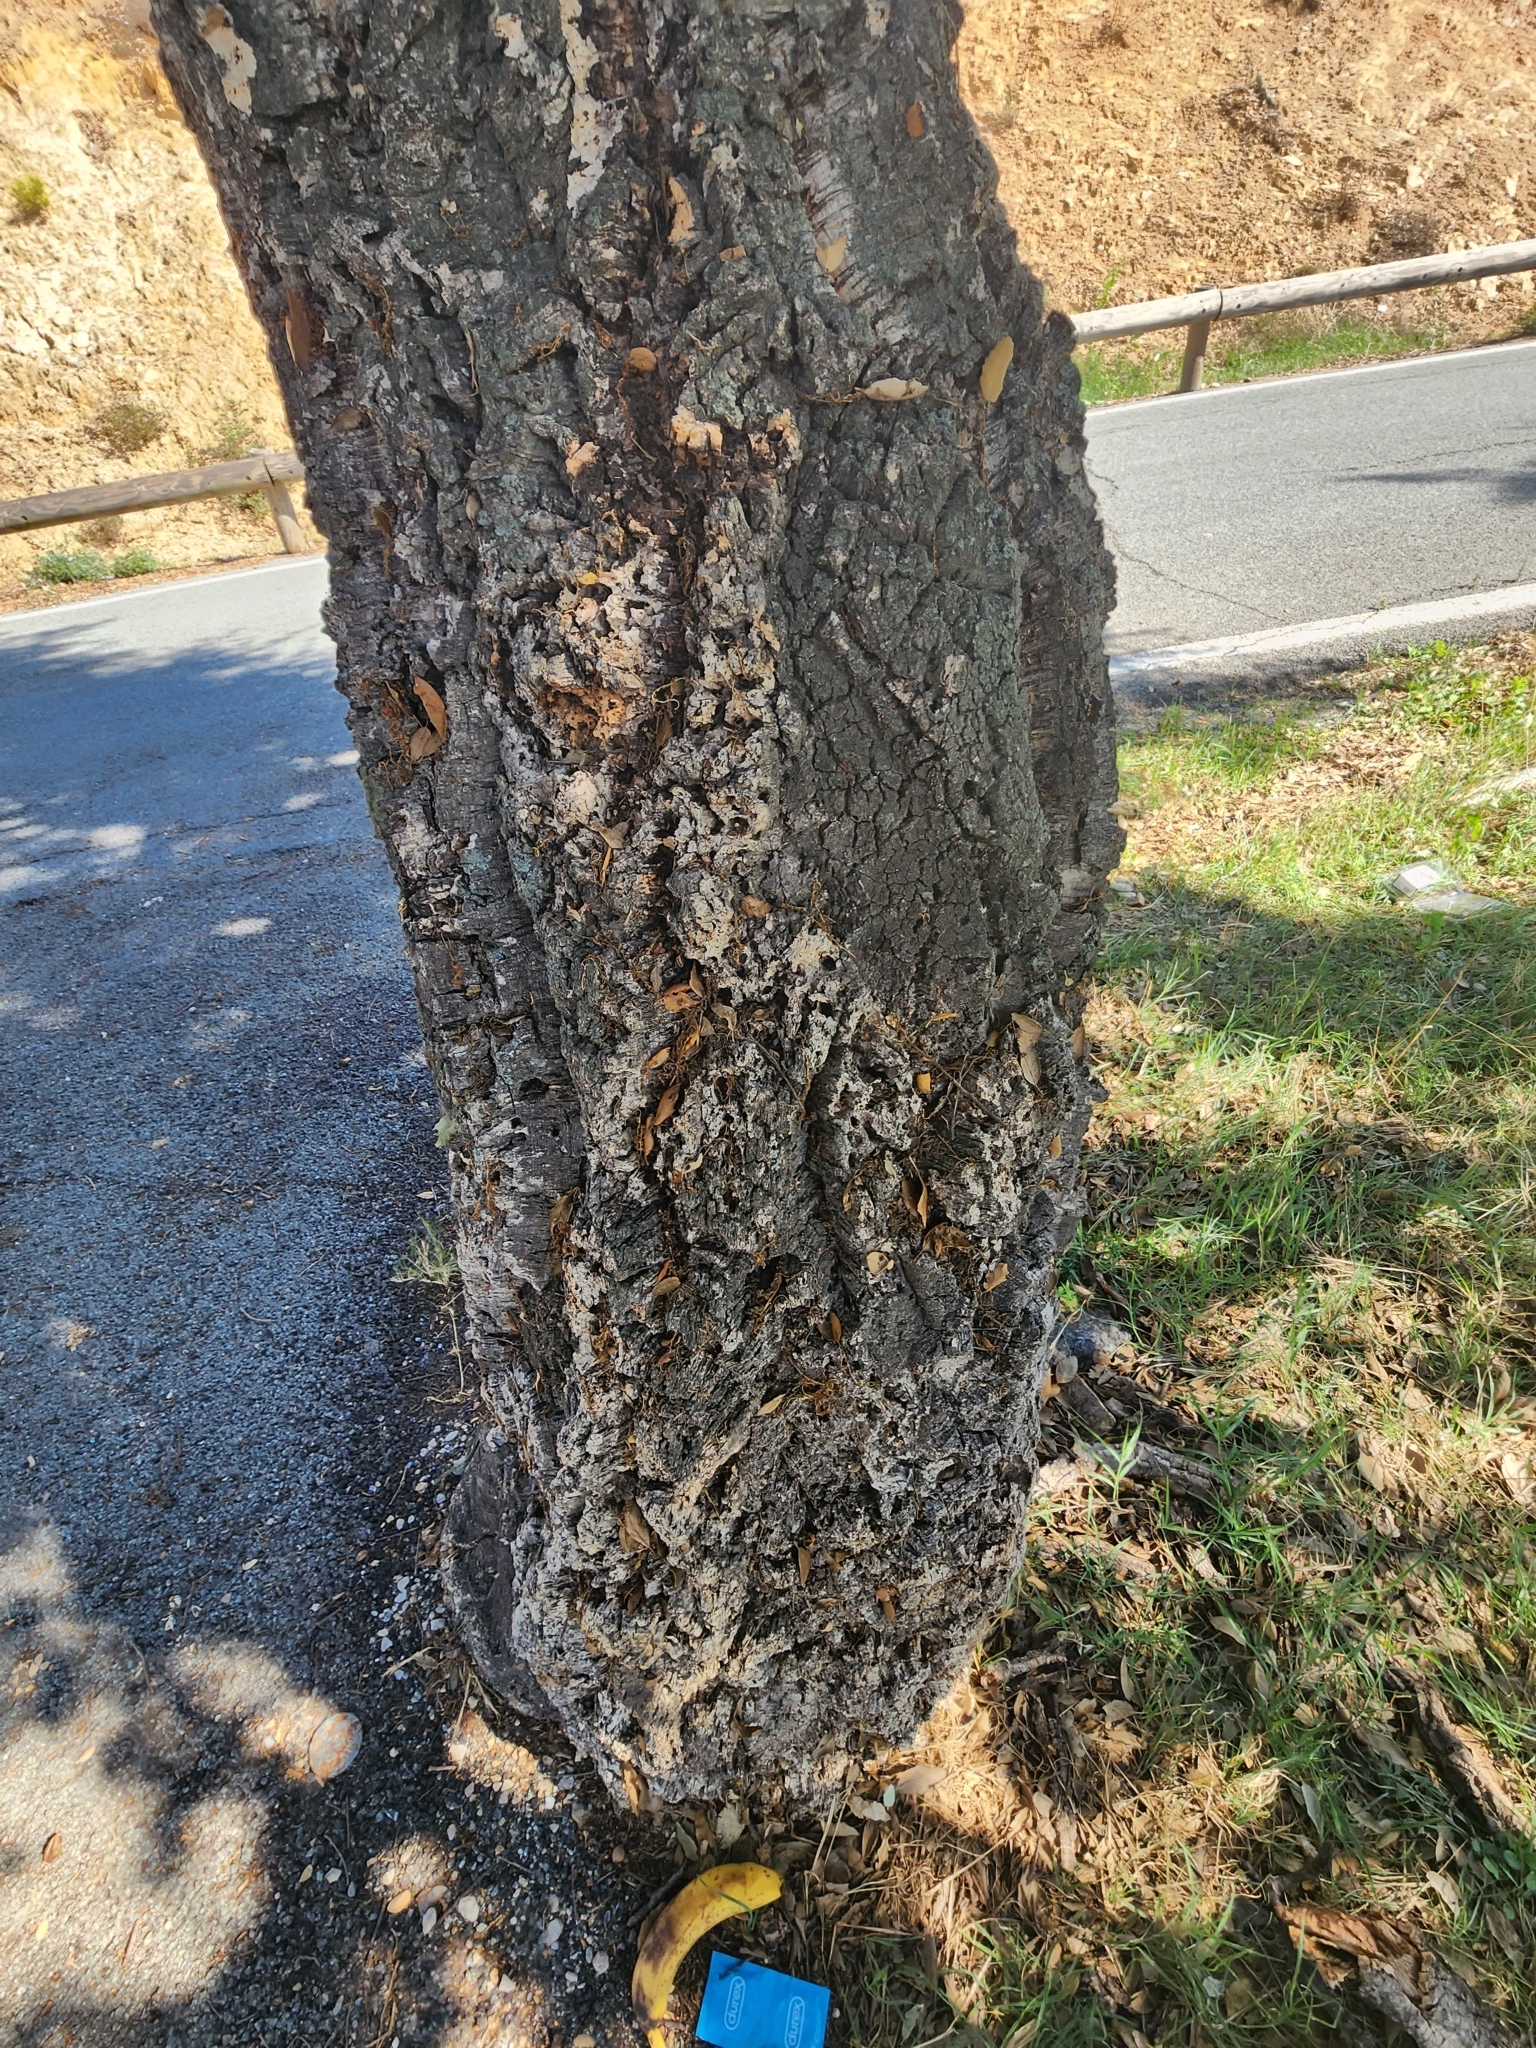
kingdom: Plantae
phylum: Tracheophyta
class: Magnoliopsida
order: Fagales
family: Fagaceae
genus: Quercus
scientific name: Quercus suber
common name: Cork oak
